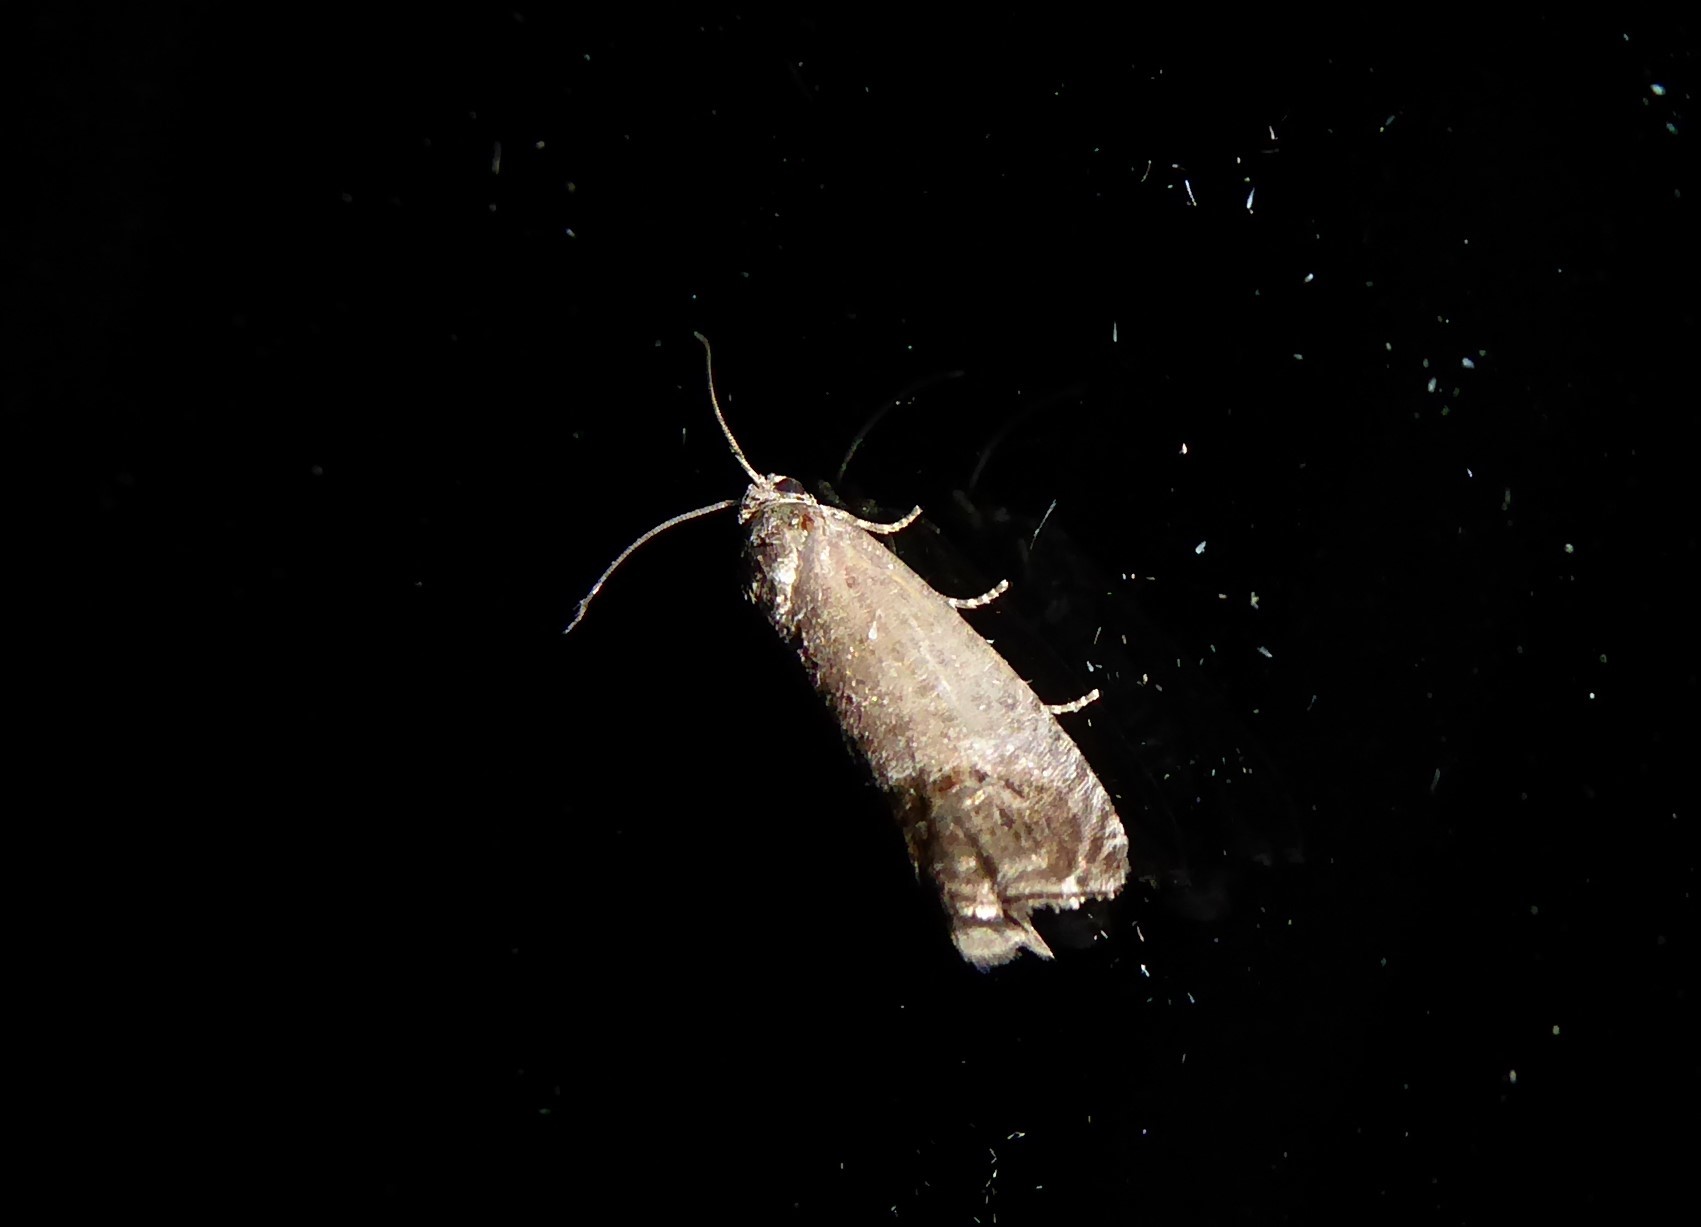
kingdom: Animalia
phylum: Arthropoda
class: Insecta
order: Lepidoptera
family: Tortricidae
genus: Cydia
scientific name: Cydia pomonella
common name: Codling moth
